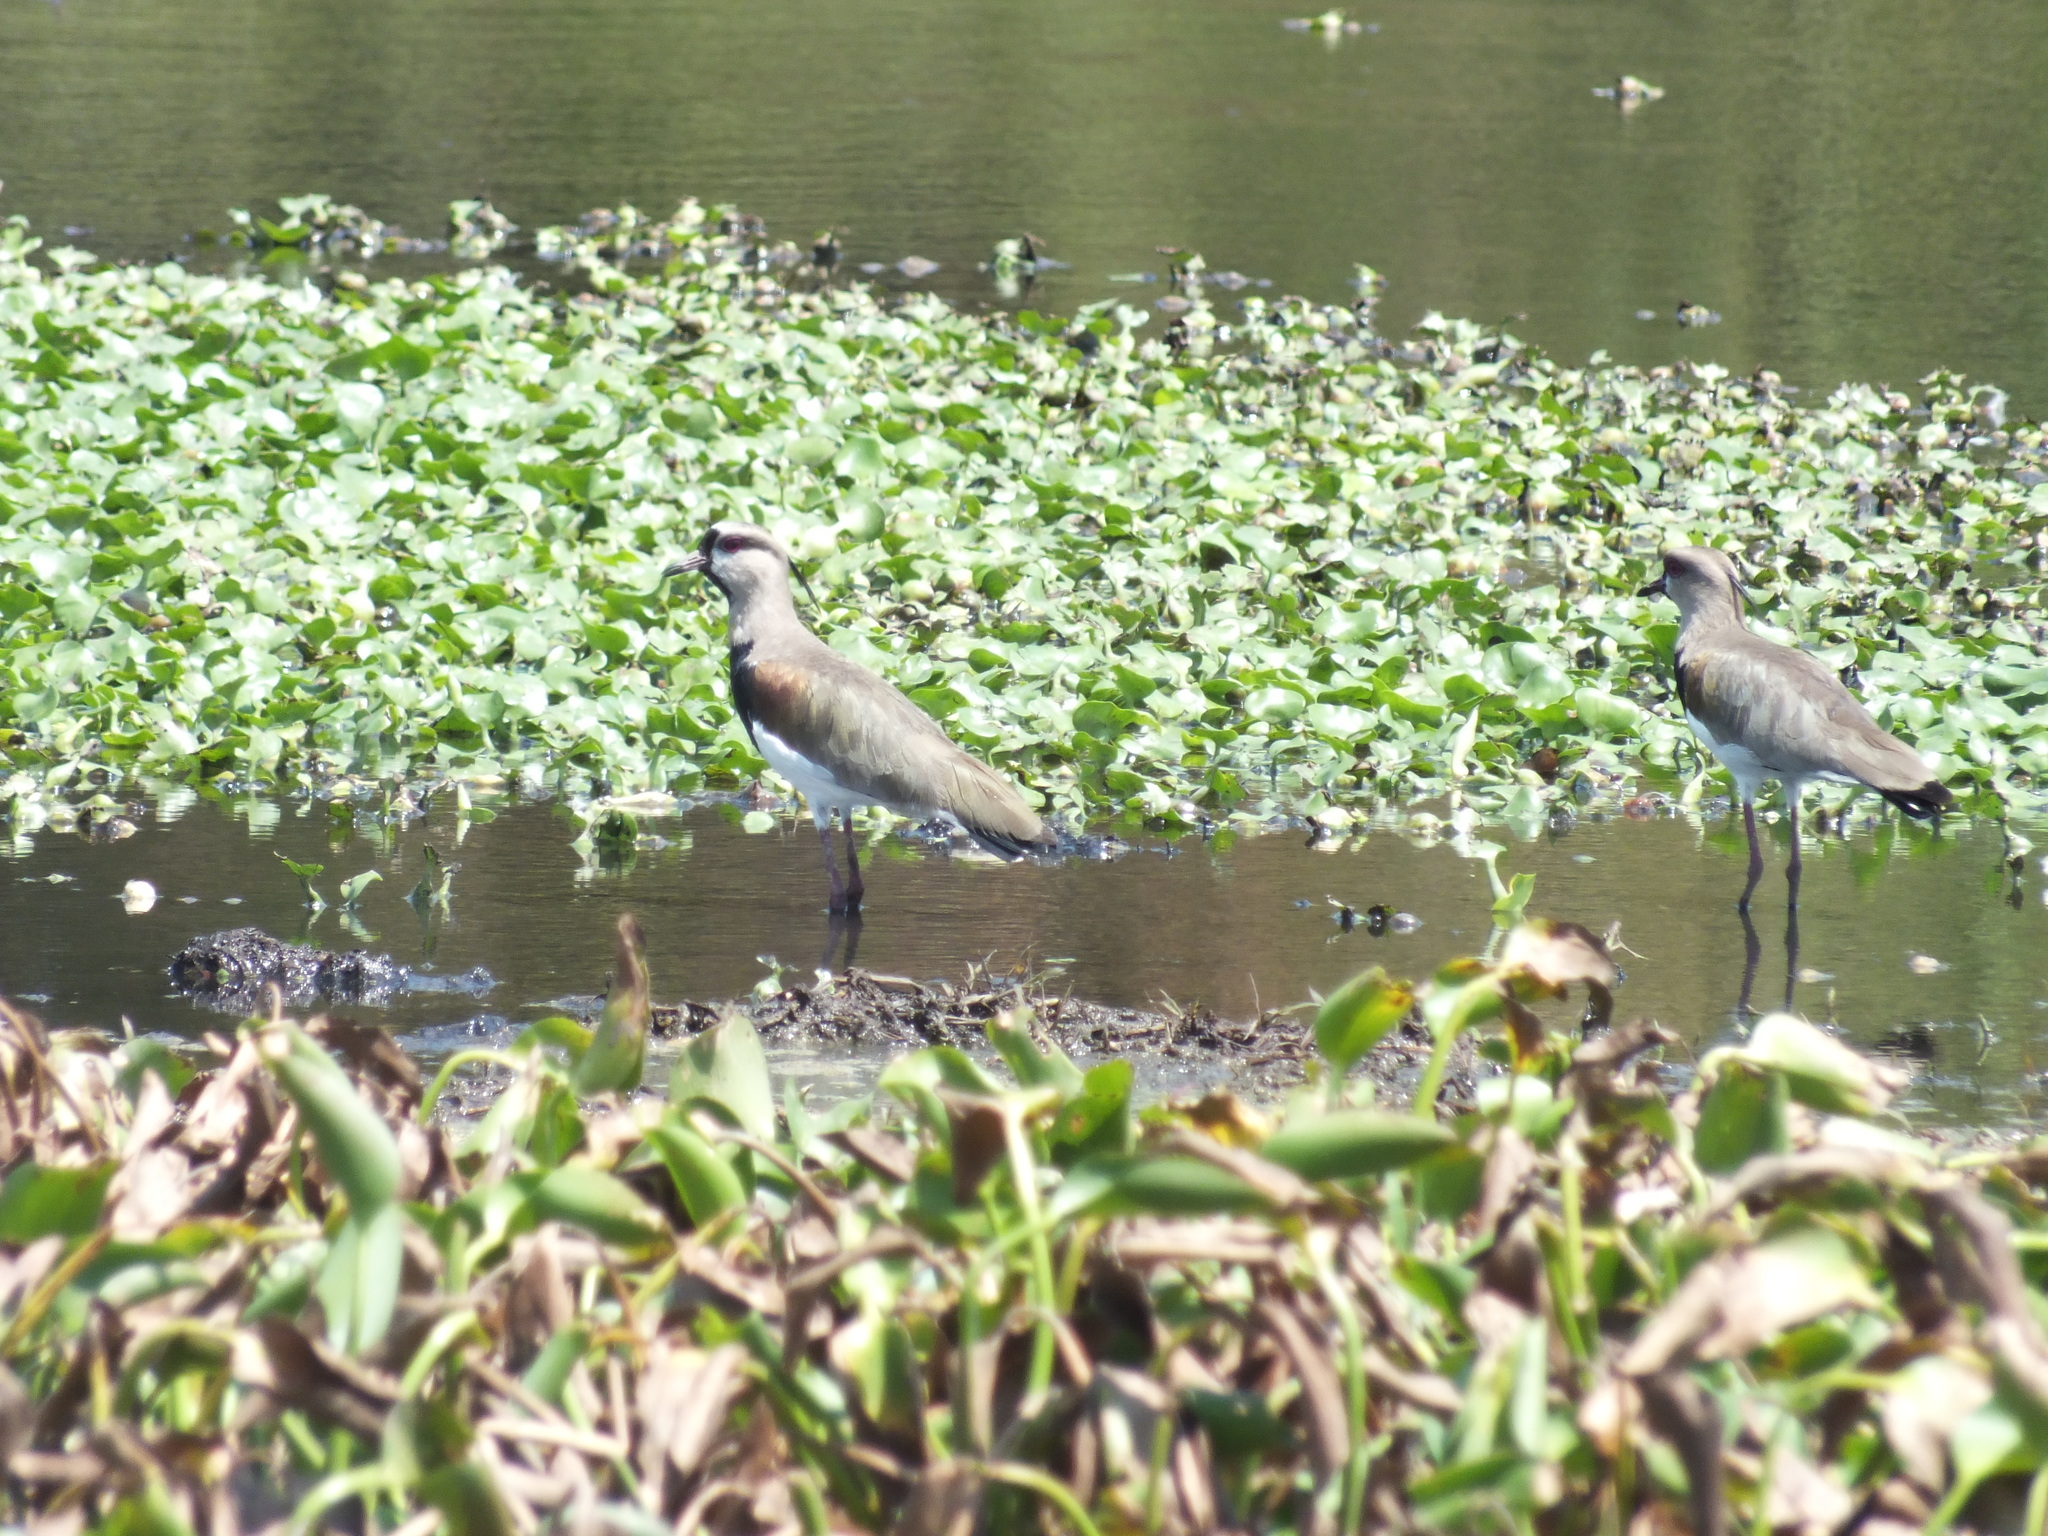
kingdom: Animalia
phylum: Chordata
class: Aves
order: Charadriiformes
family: Charadriidae
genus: Vanellus
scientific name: Vanellus chilensis
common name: Southern lapwing
